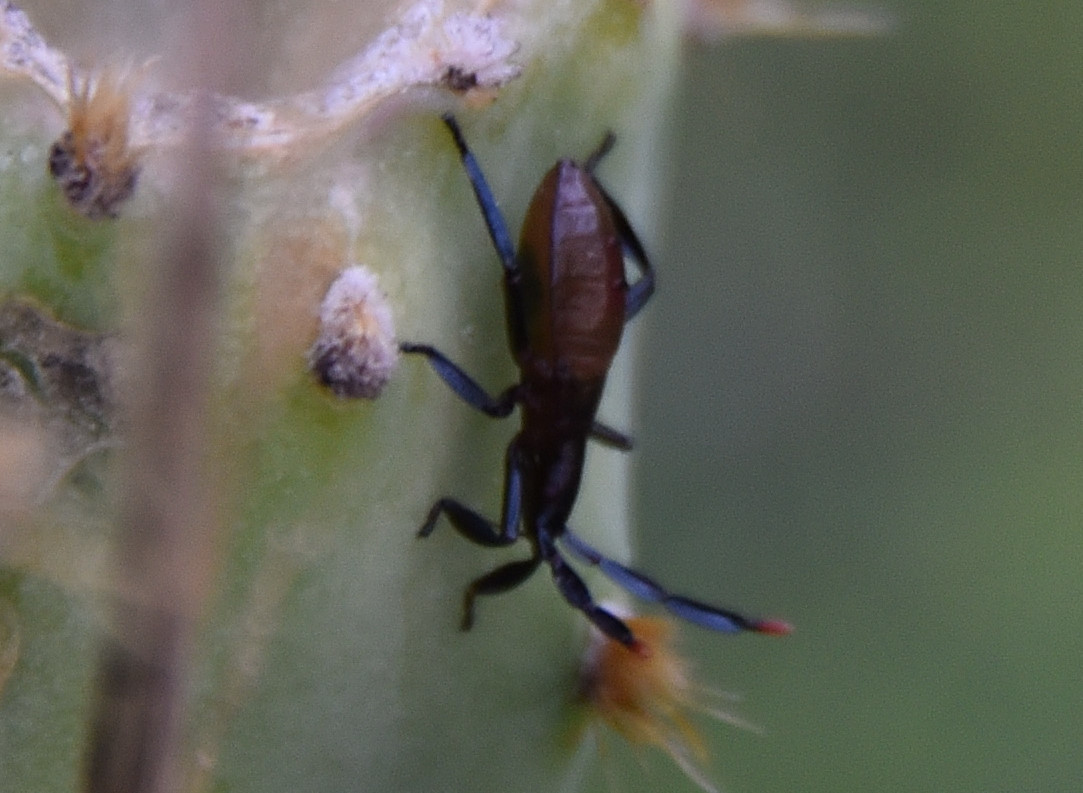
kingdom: Animalia
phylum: Arthropoda
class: Insecta
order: Hemiptera
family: Coreidae
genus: Chelinidea
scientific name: Chelinidea vittiger
